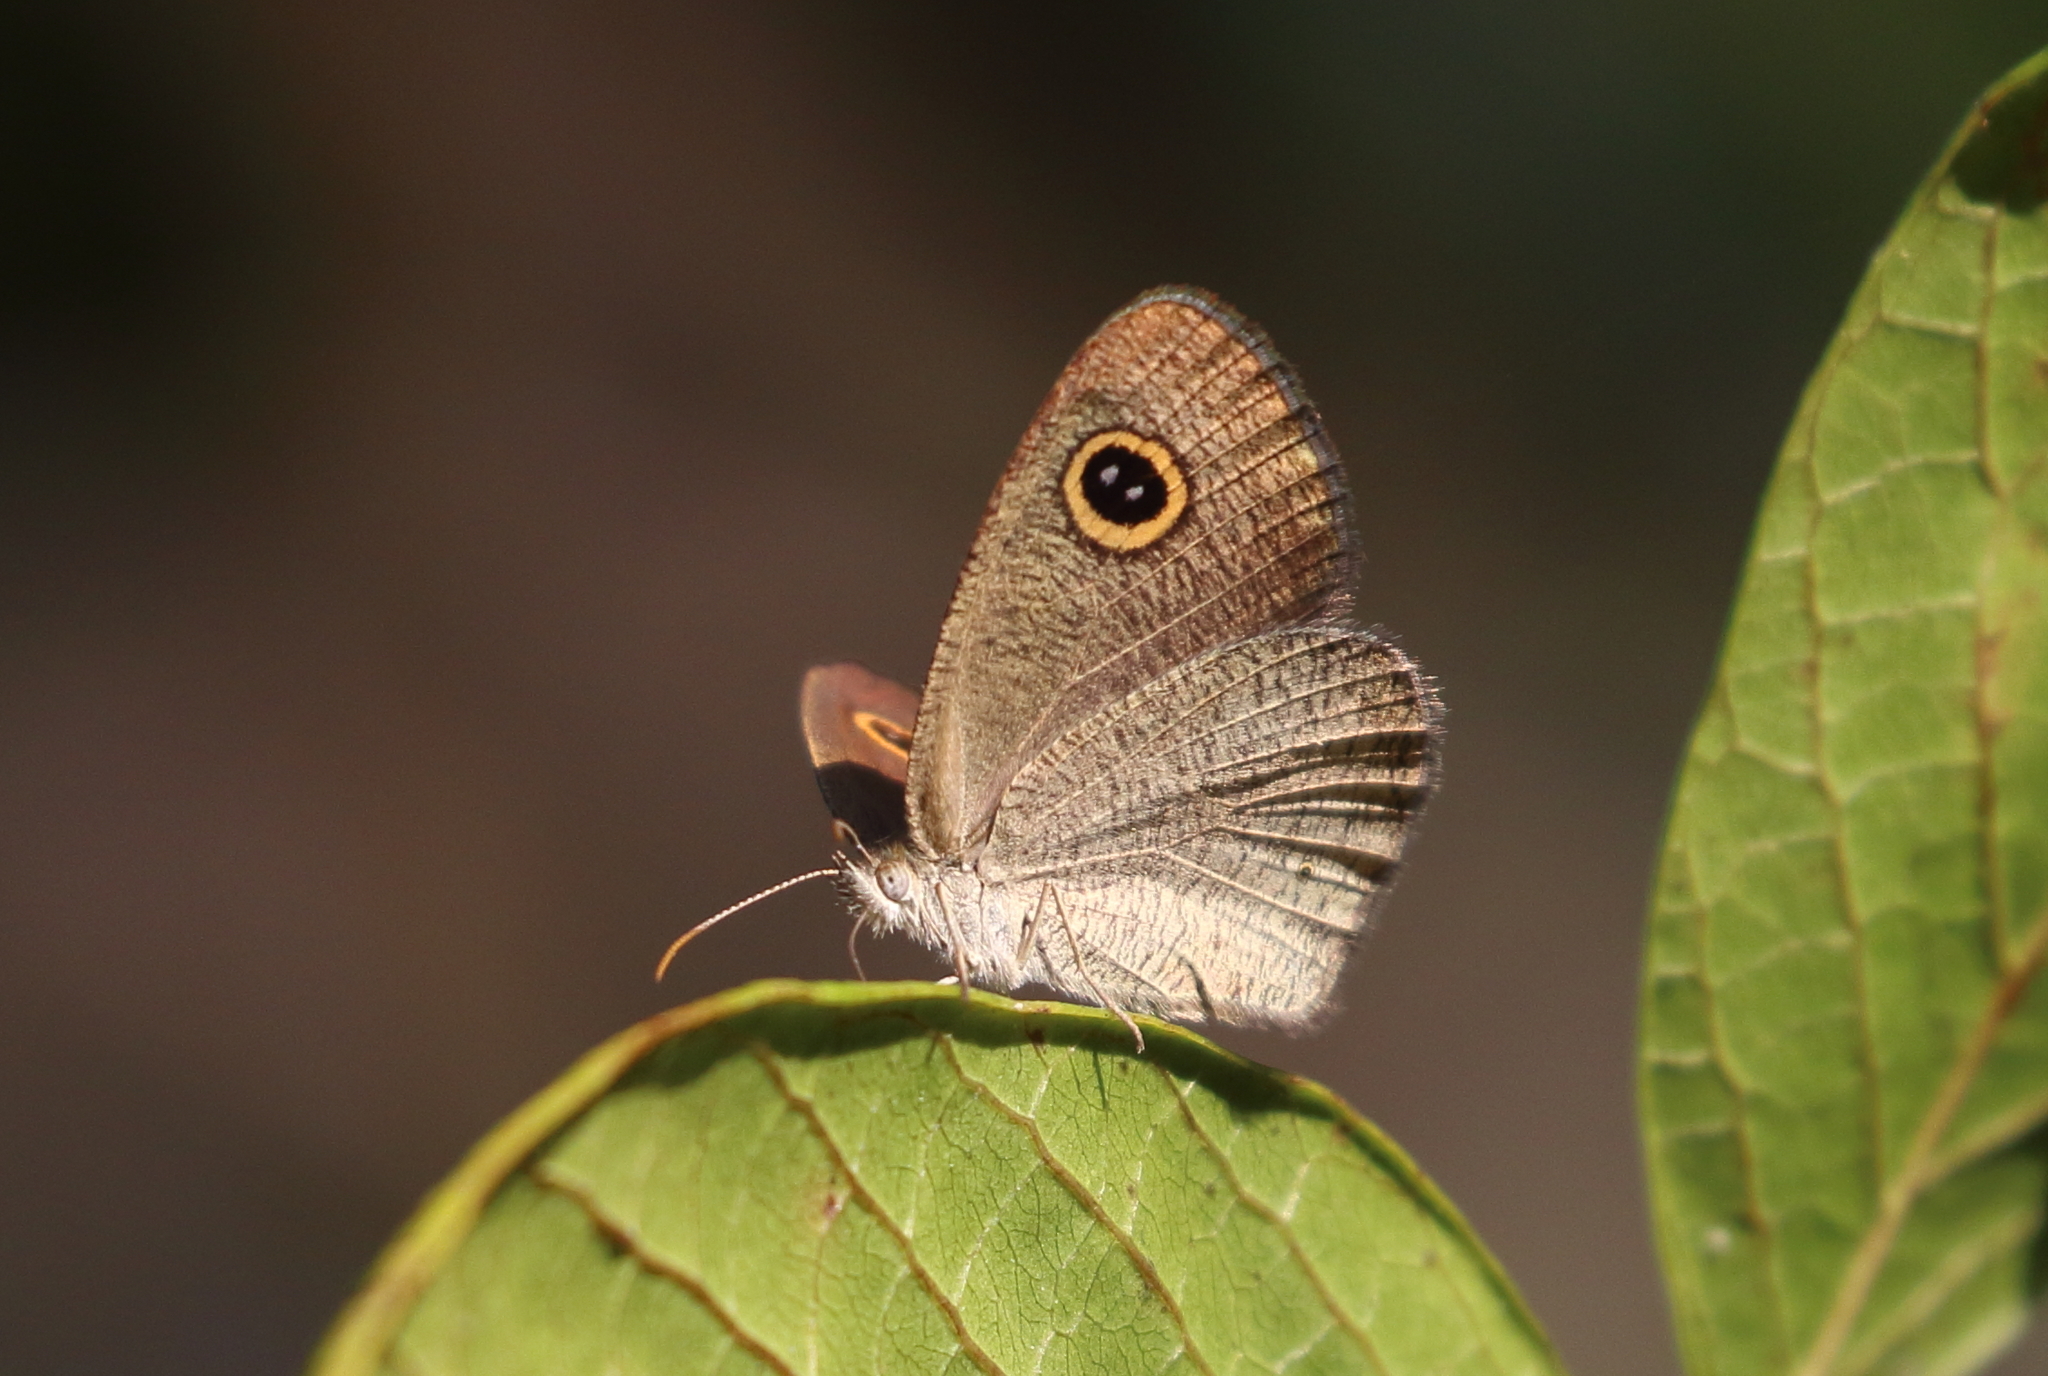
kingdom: Animalia
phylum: Arthropoda
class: Insecta
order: Lepidoptera
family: Nymphalidae
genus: Ypthima
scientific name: Ypthima arctous
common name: Dusky knight
